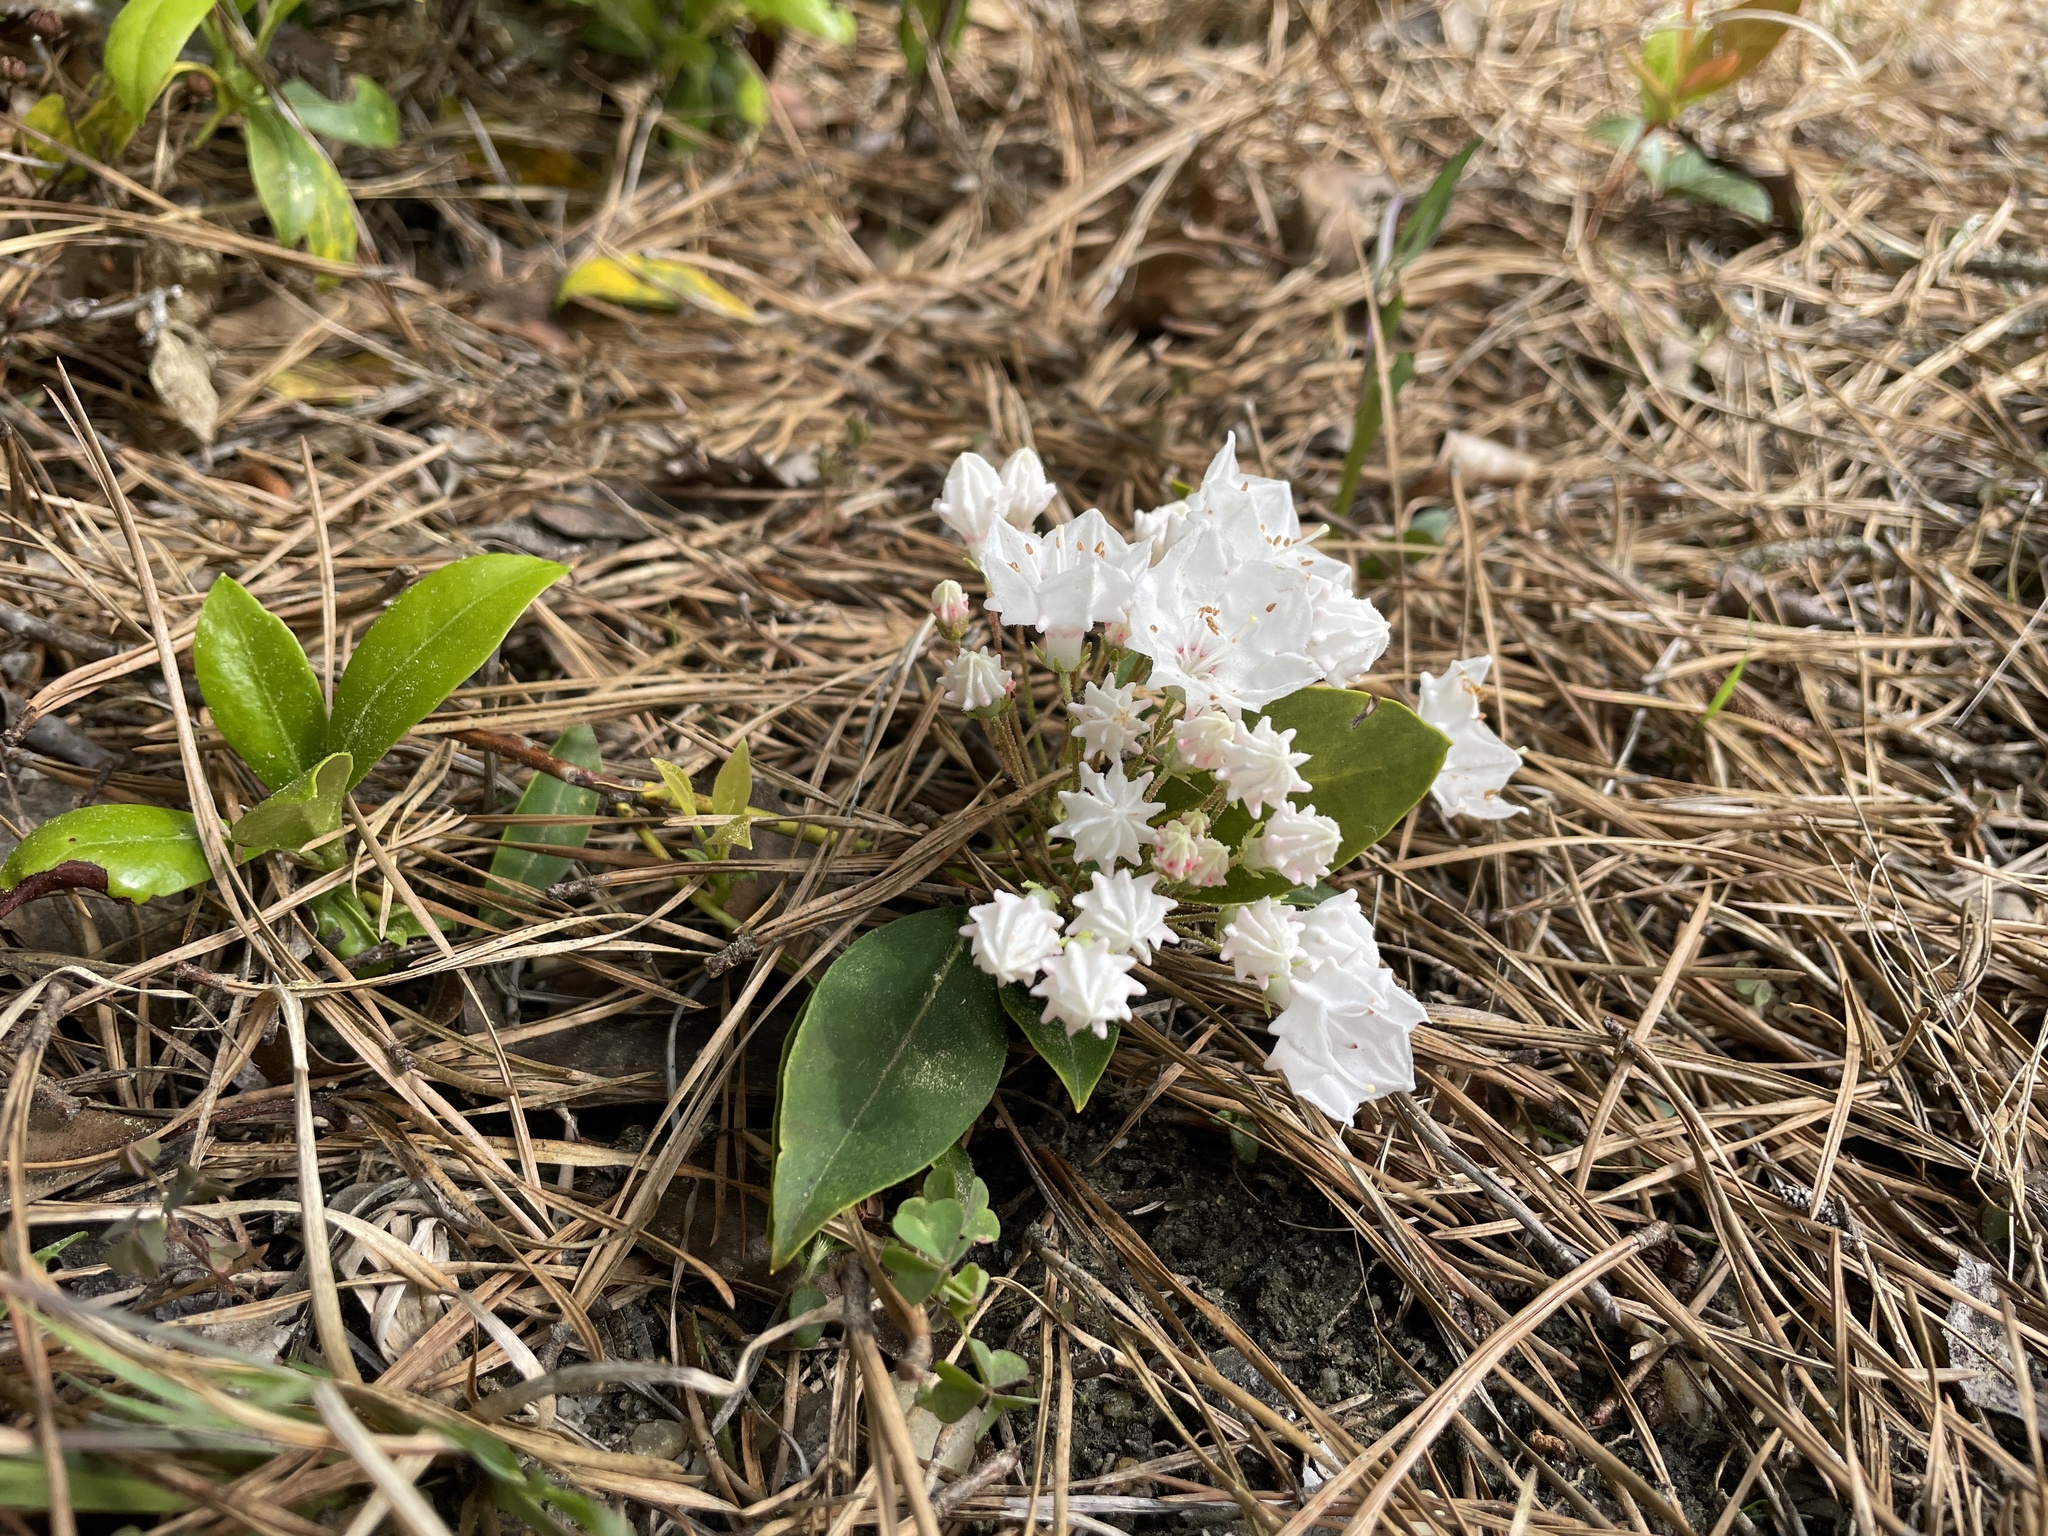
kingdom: Plantae
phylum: Tracheophyta
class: Magnoliopsida
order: Ericales
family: Ericaceae
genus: Kalmia
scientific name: Kalmia latifolia
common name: Mountain-laurel
